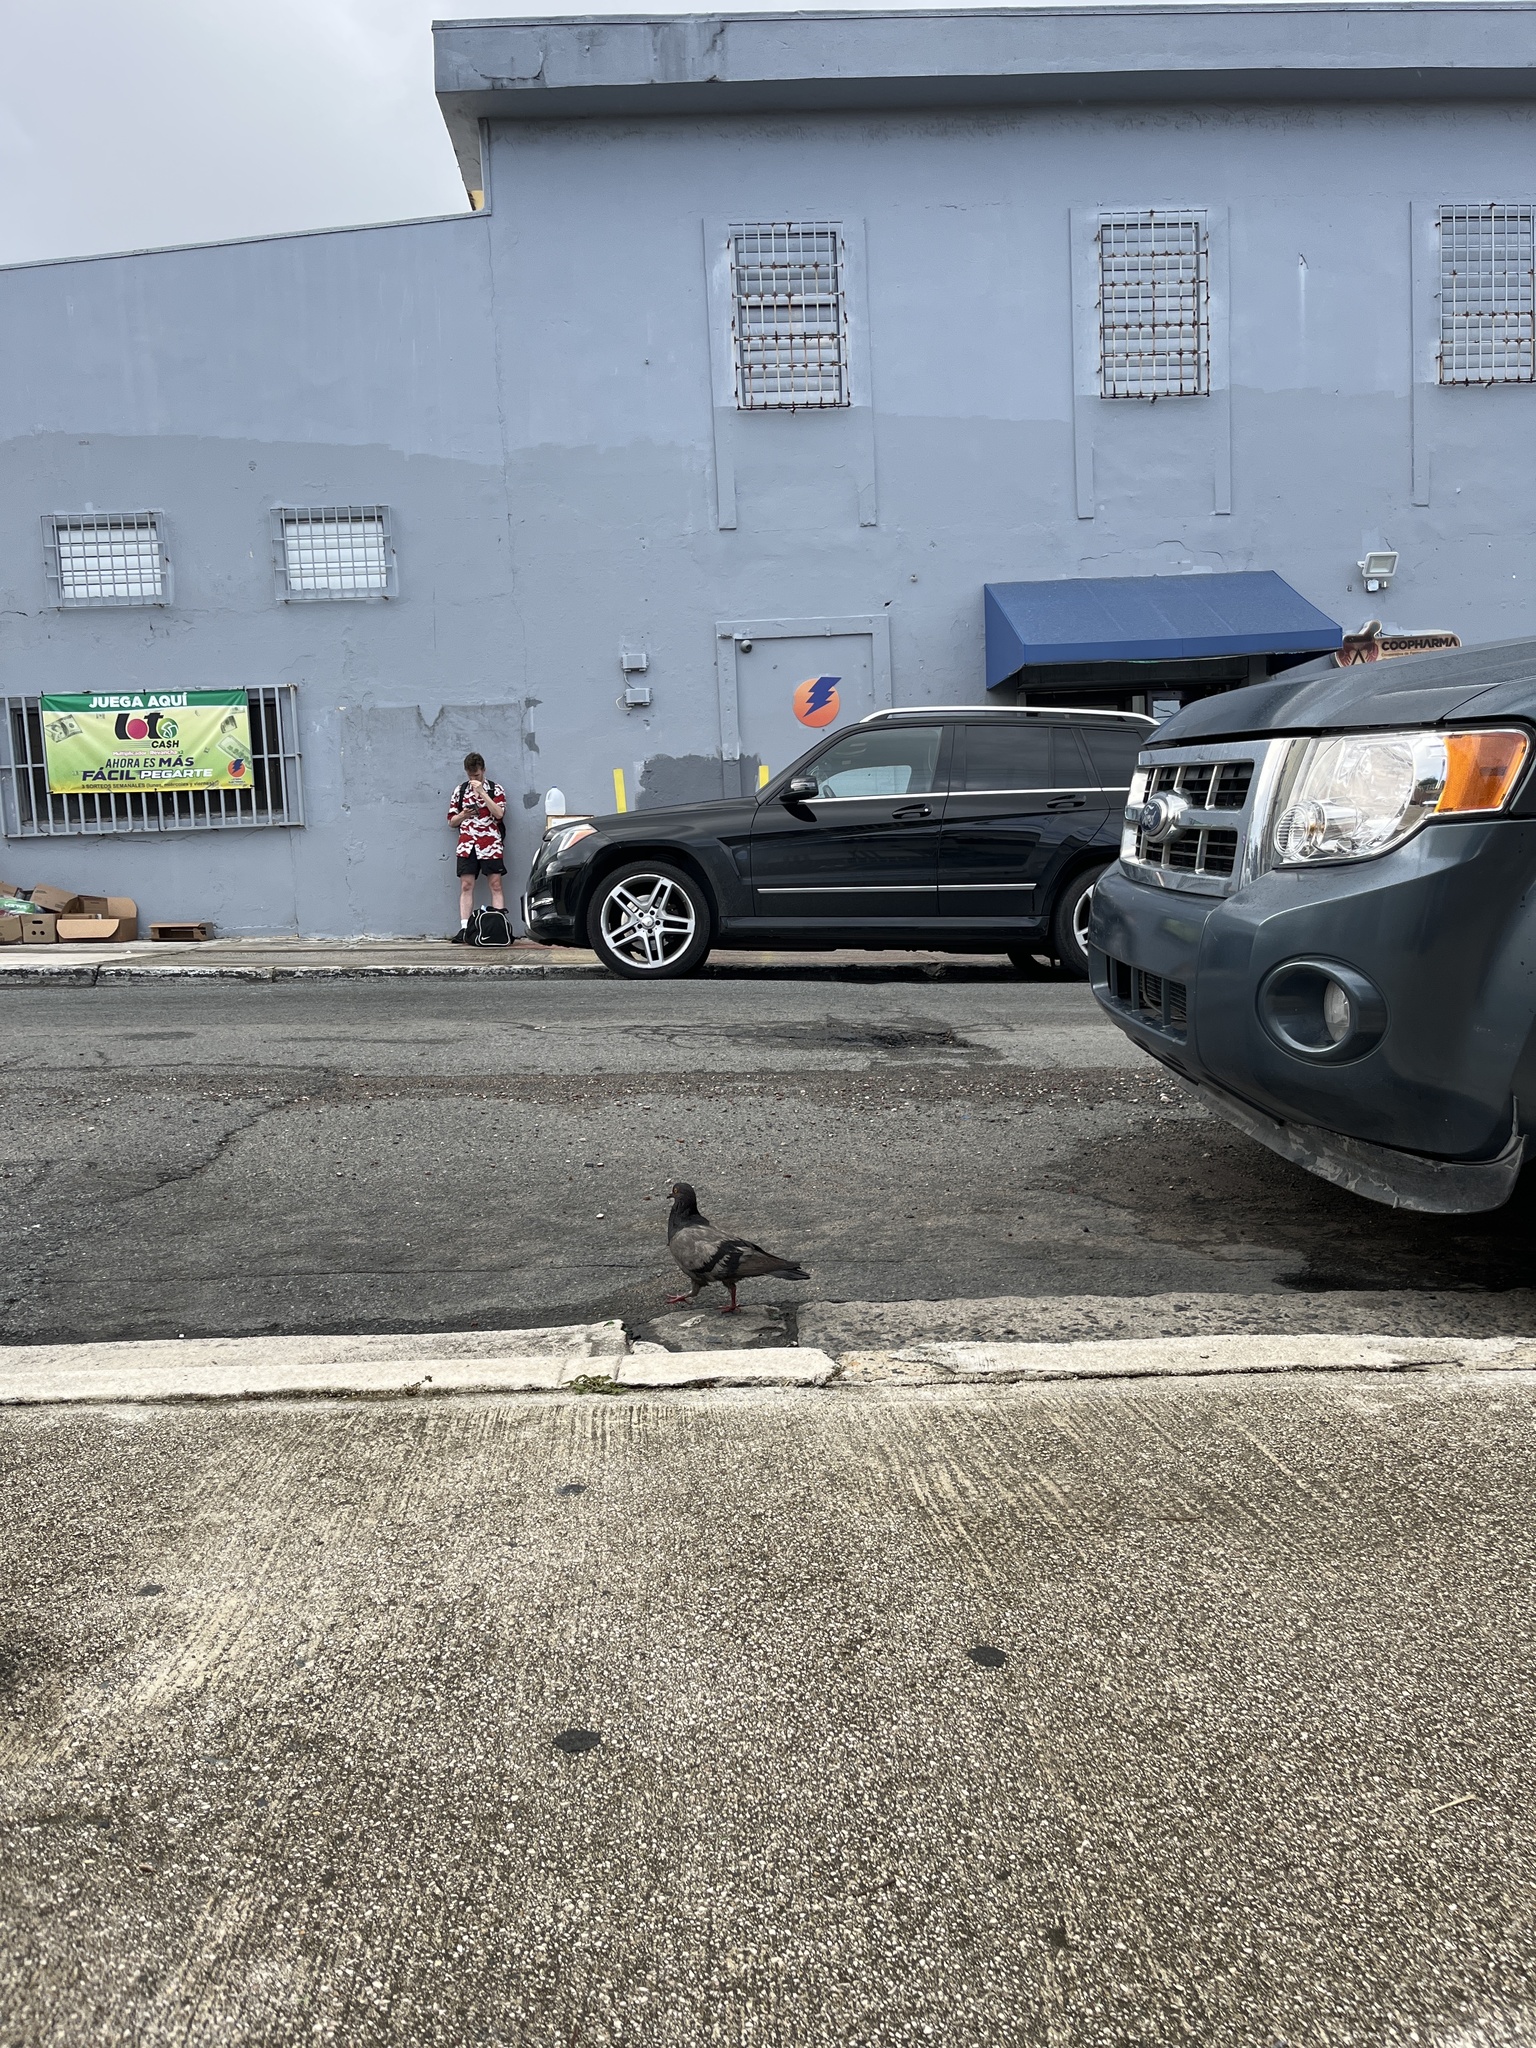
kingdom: Animalia
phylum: Chordata
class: Aves
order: Columbiformes
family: Columbidae
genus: Columba
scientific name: Columba livia
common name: Rock pigeon
